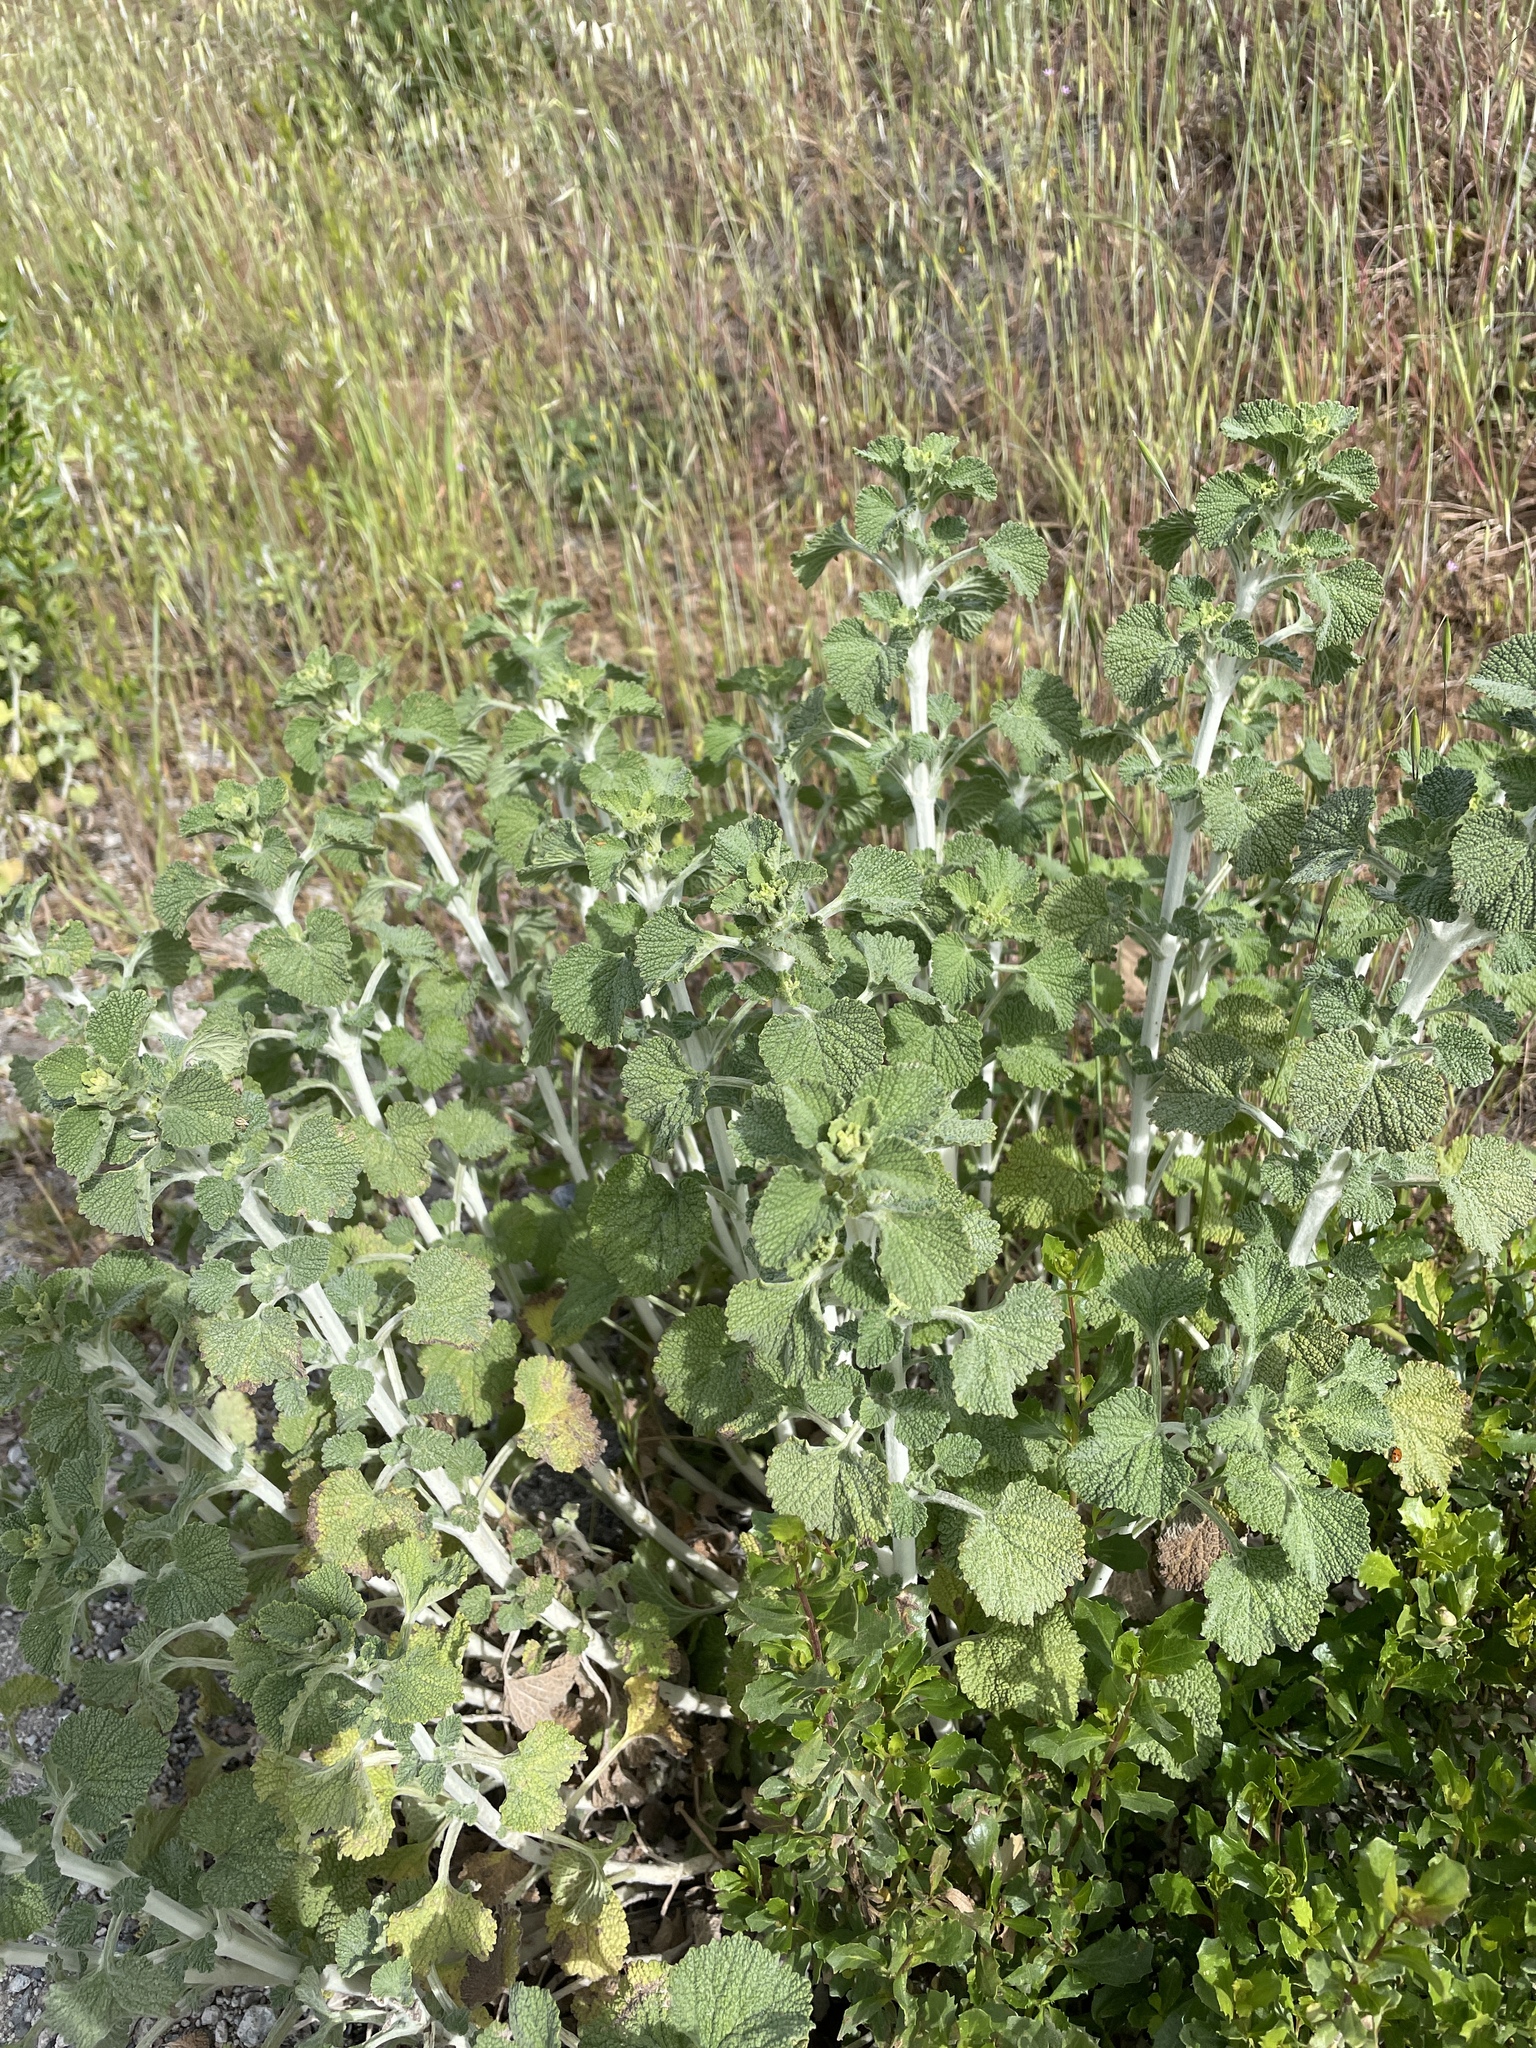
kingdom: Plantae
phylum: Tracheophyta
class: Magnoliopsida
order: Lamiales
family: Lamiaceae
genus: Marrubium
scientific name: Marrubium vulgare
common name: Horehound
